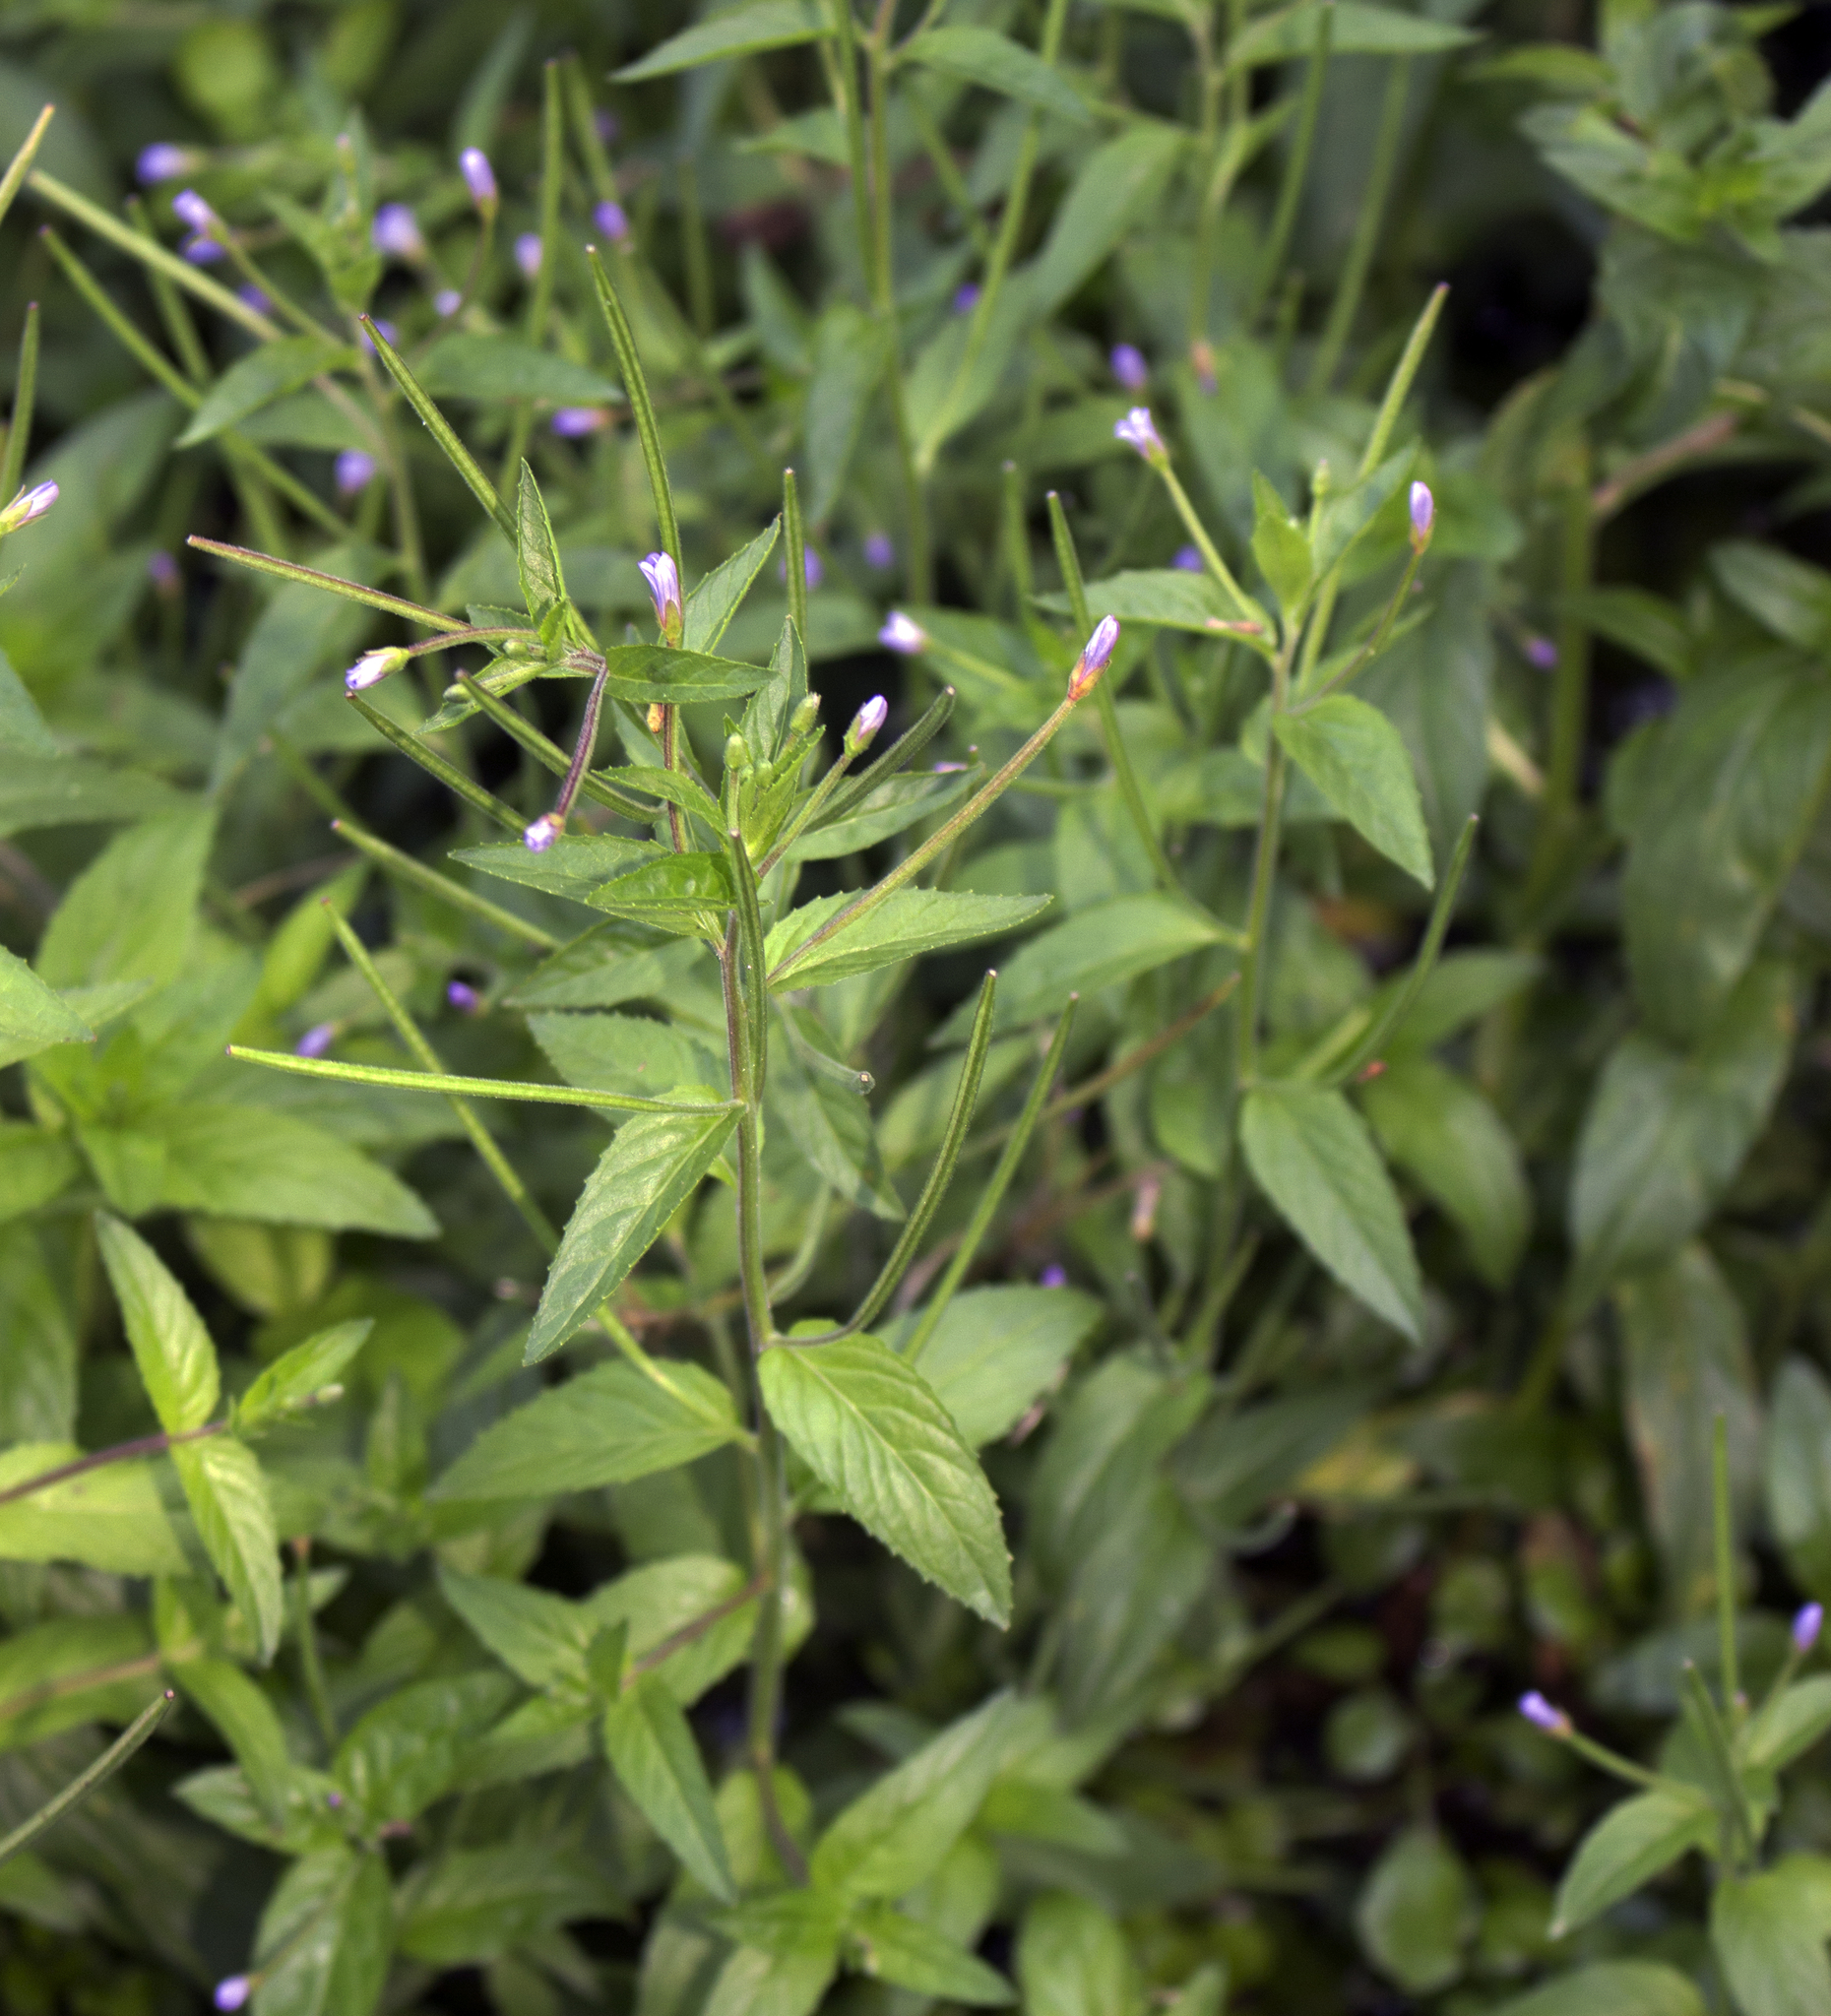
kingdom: Plantae
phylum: Tracheophyta
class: Magnoliopsida
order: Myrtales
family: Onagraceae
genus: Epilobium
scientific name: Epilobium coloratum
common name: Bronze willowherb
